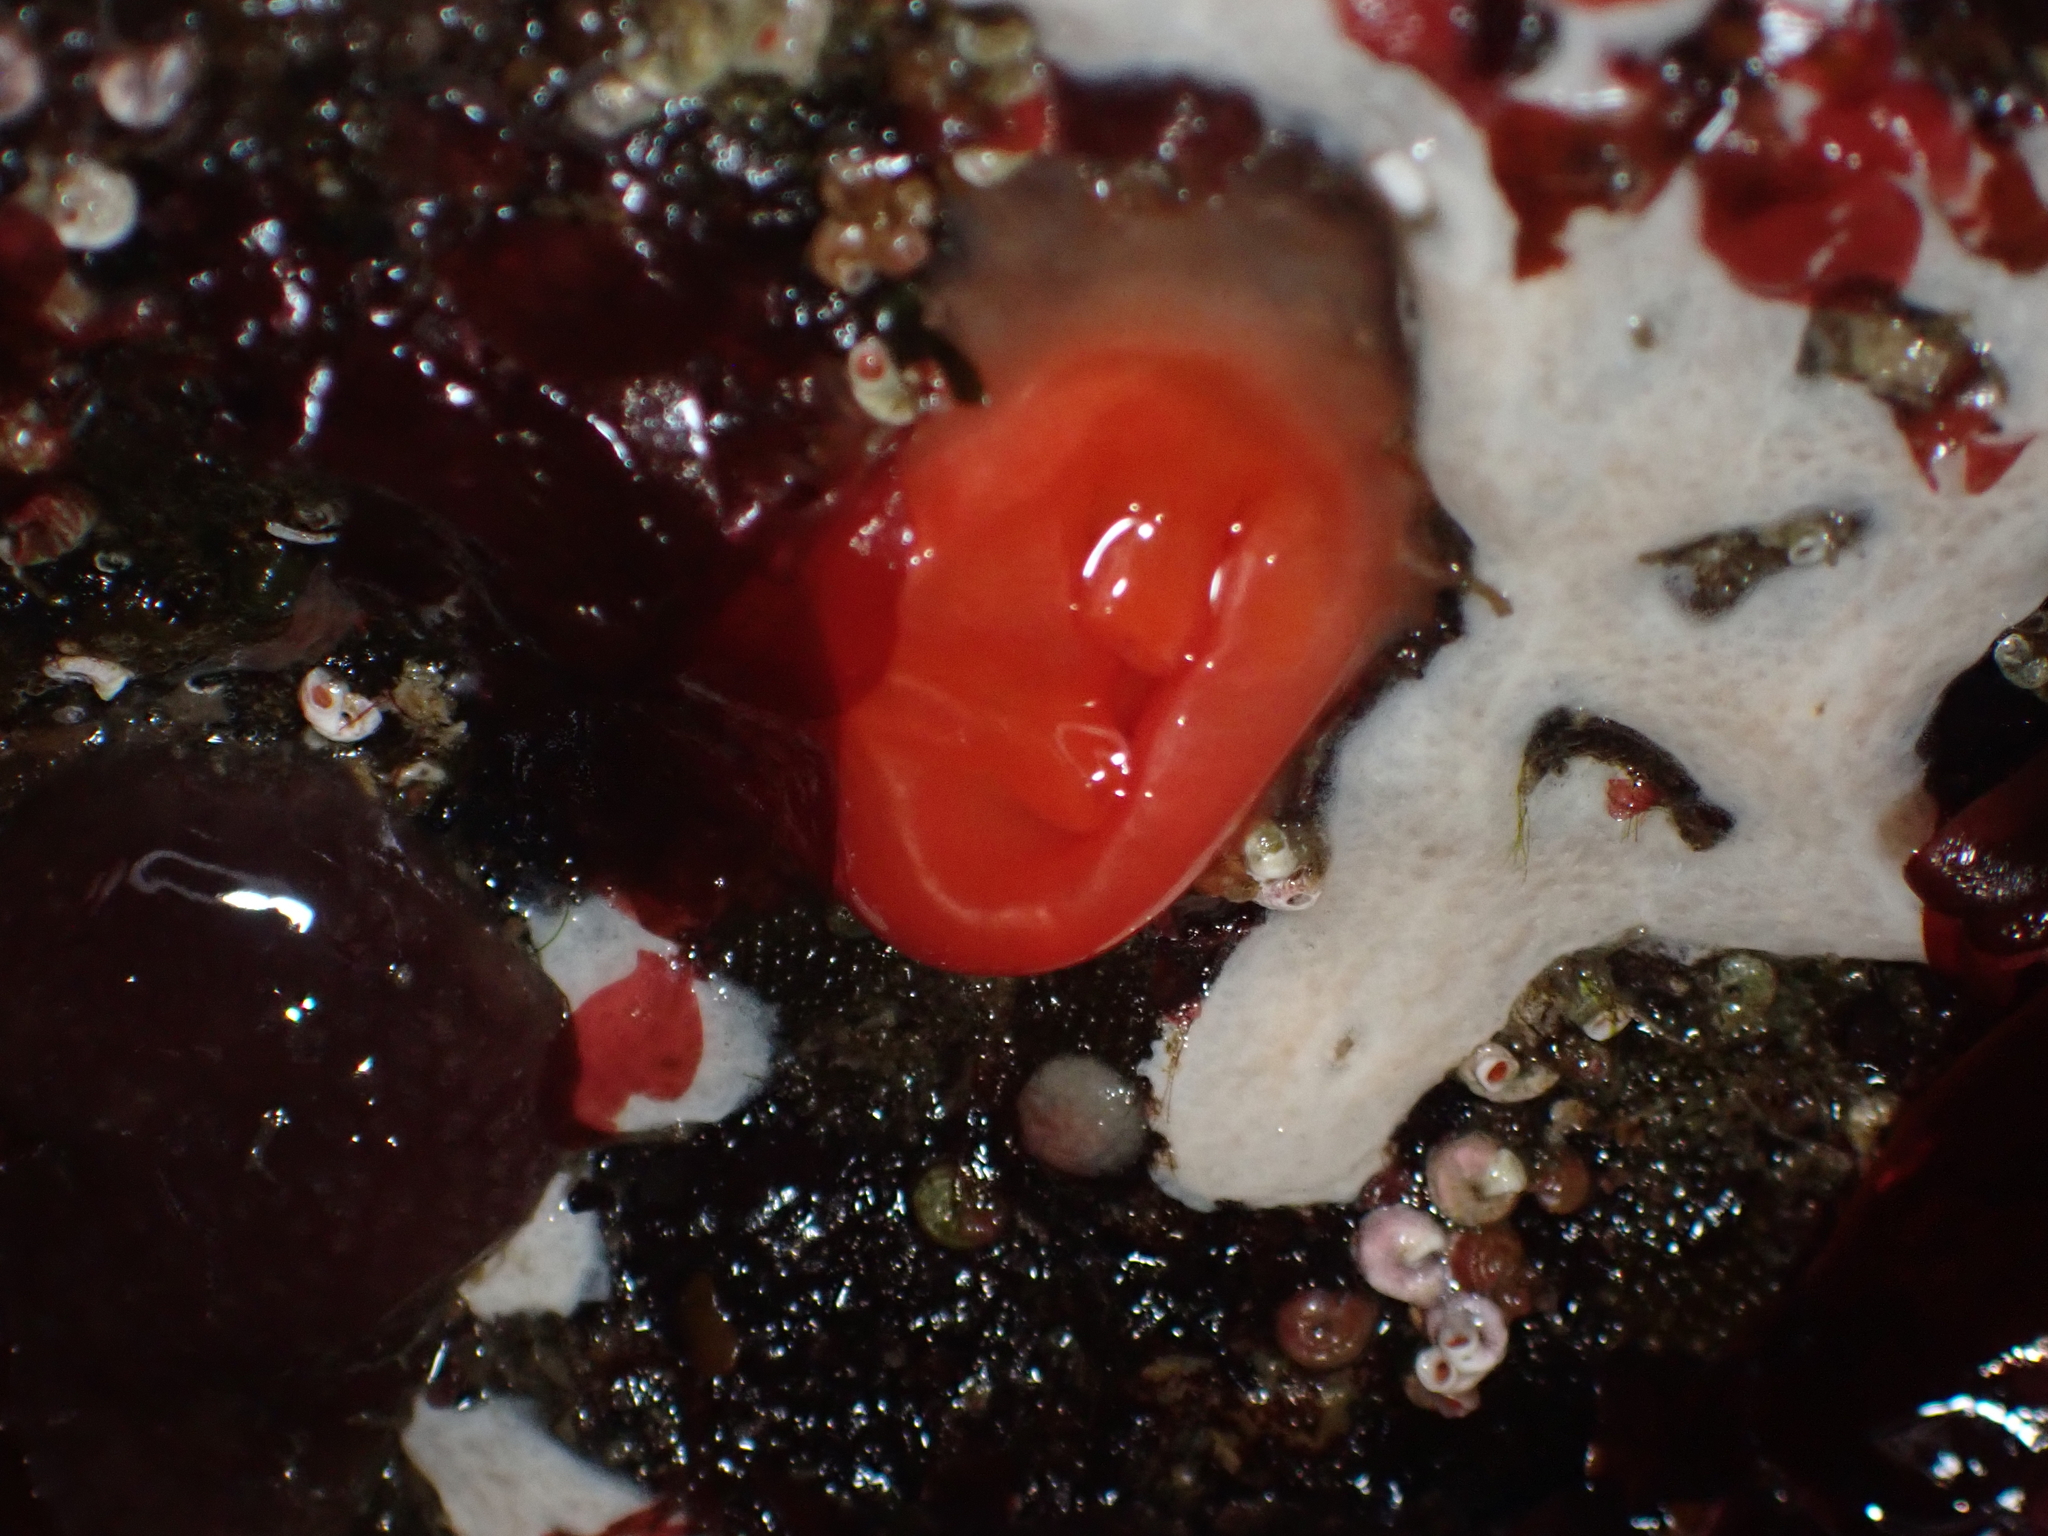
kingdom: Animalia
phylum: Chordata
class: Ascidiacea
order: Stolidobranchia
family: Styelidae
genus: Cnemidocarpa
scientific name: Cnemidocarpa finmarkiensis
